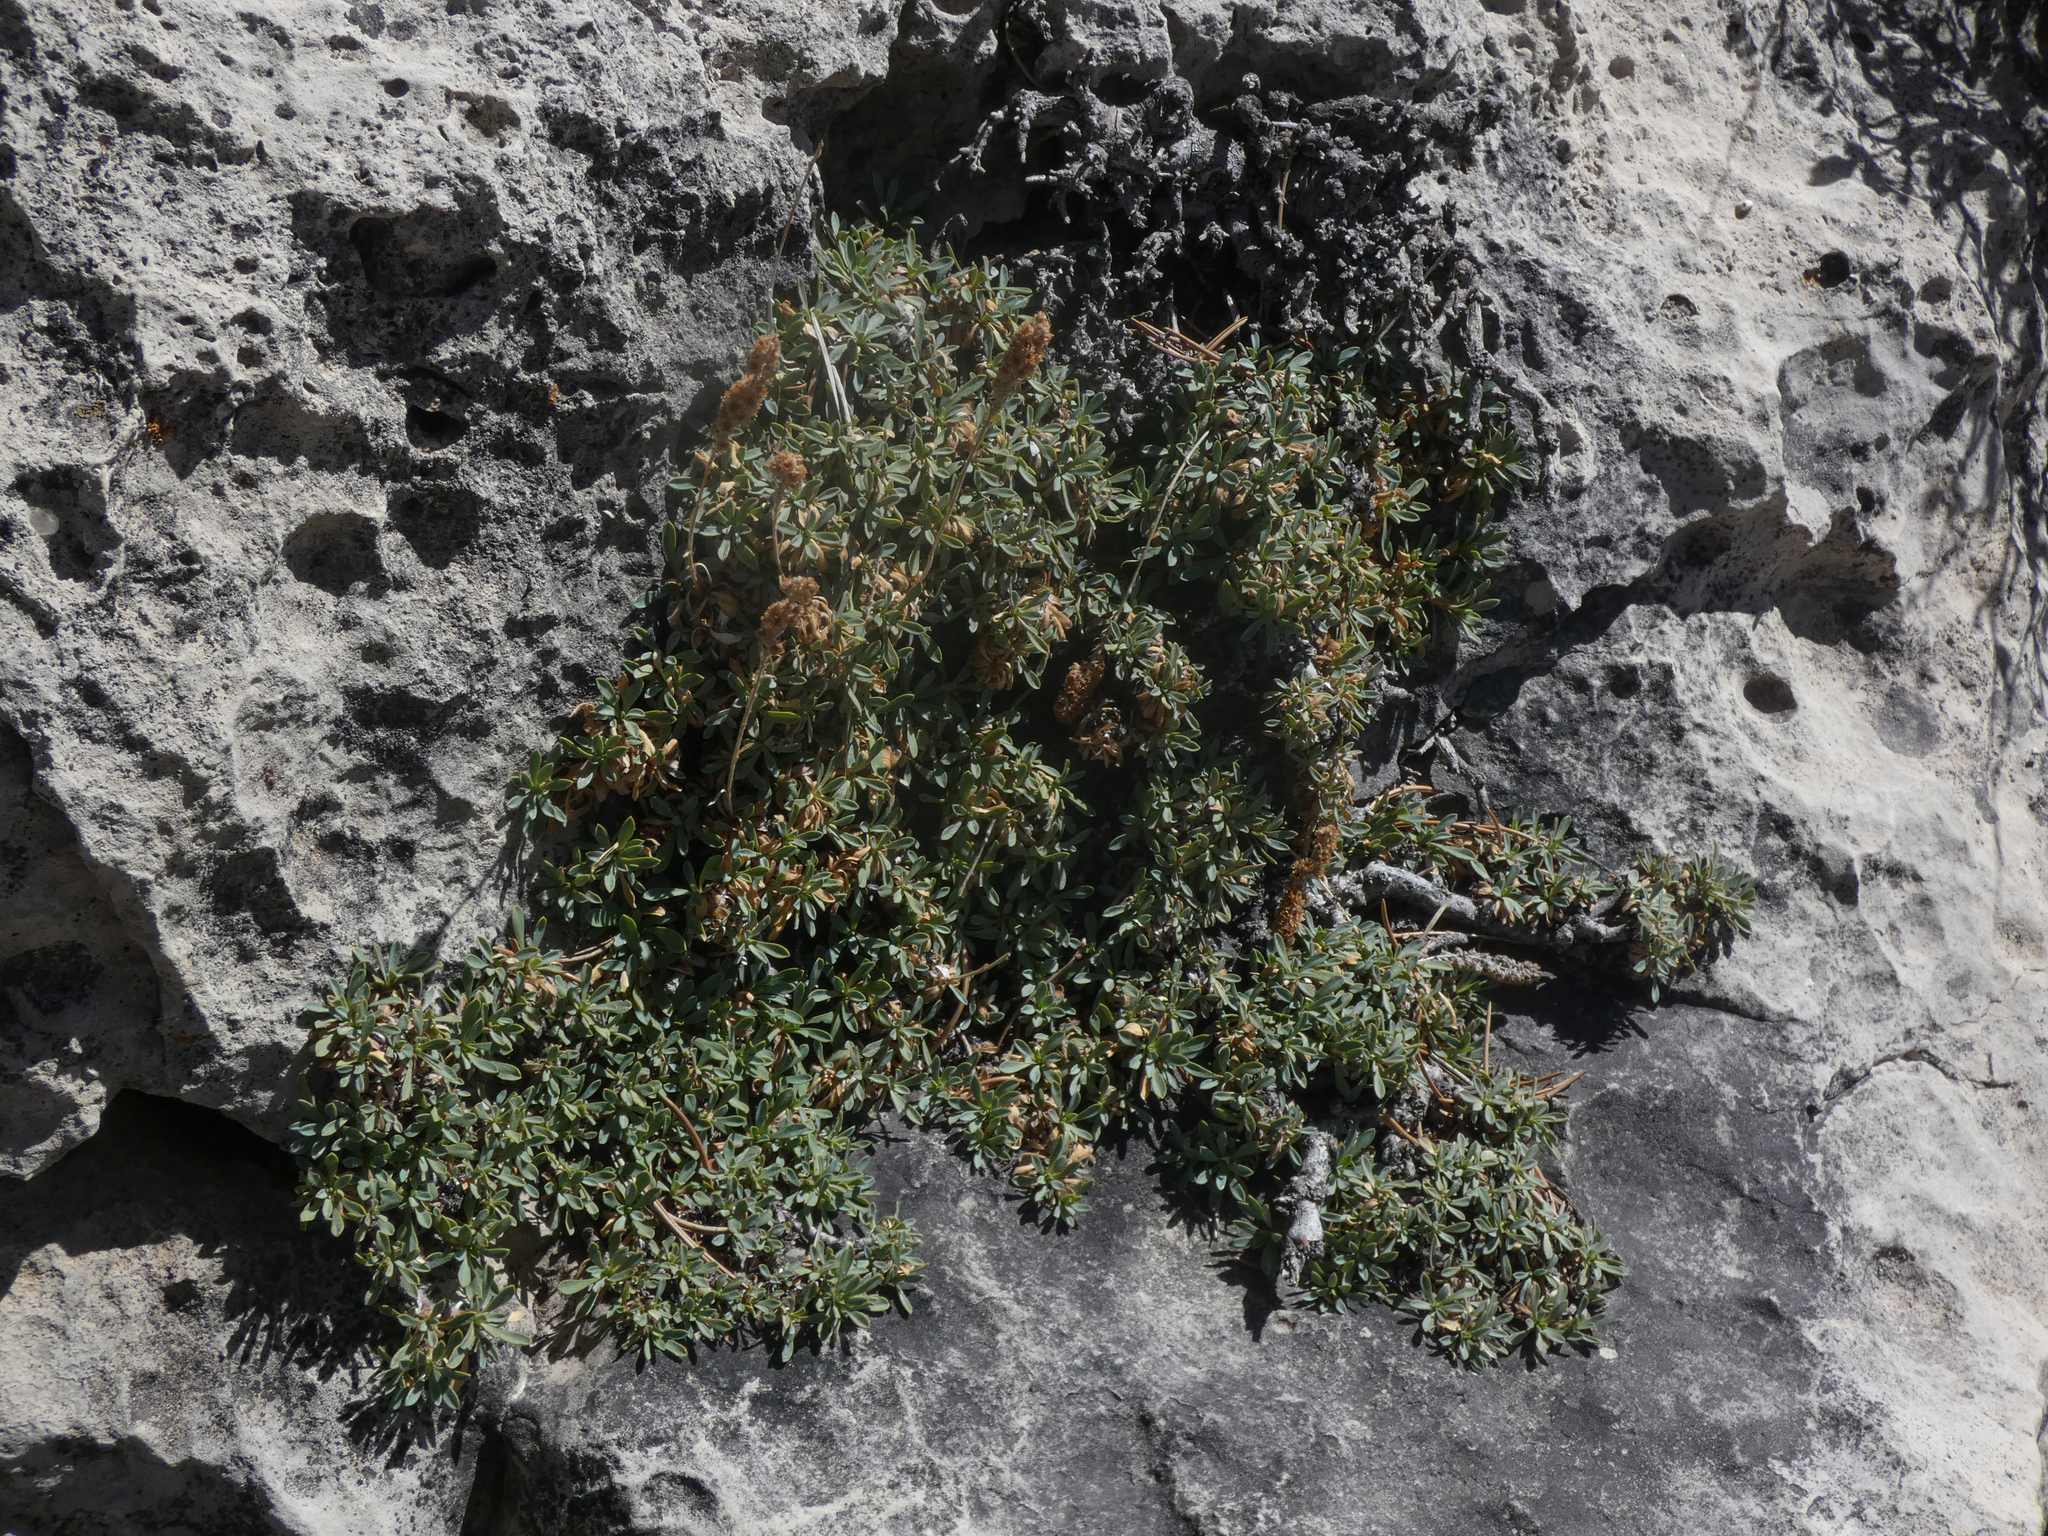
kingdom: Plantae
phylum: Tracheophyta
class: Magnoliopsida
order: Rosales
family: Rosaceae
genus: Petrophytum
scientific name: Petrophytum caespitosum
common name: Mat rockspirea
